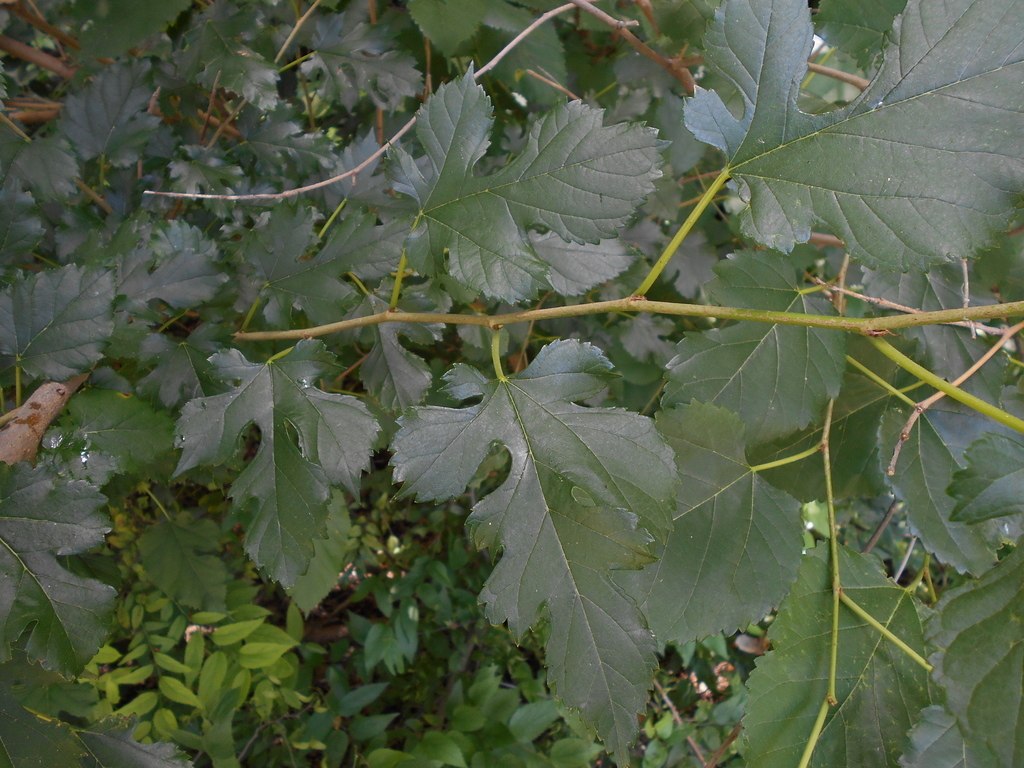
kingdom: Plantae
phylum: Tracheophyta
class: Magnoliopsida
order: Rosales
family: Moraceae
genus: Morus
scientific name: Morus
